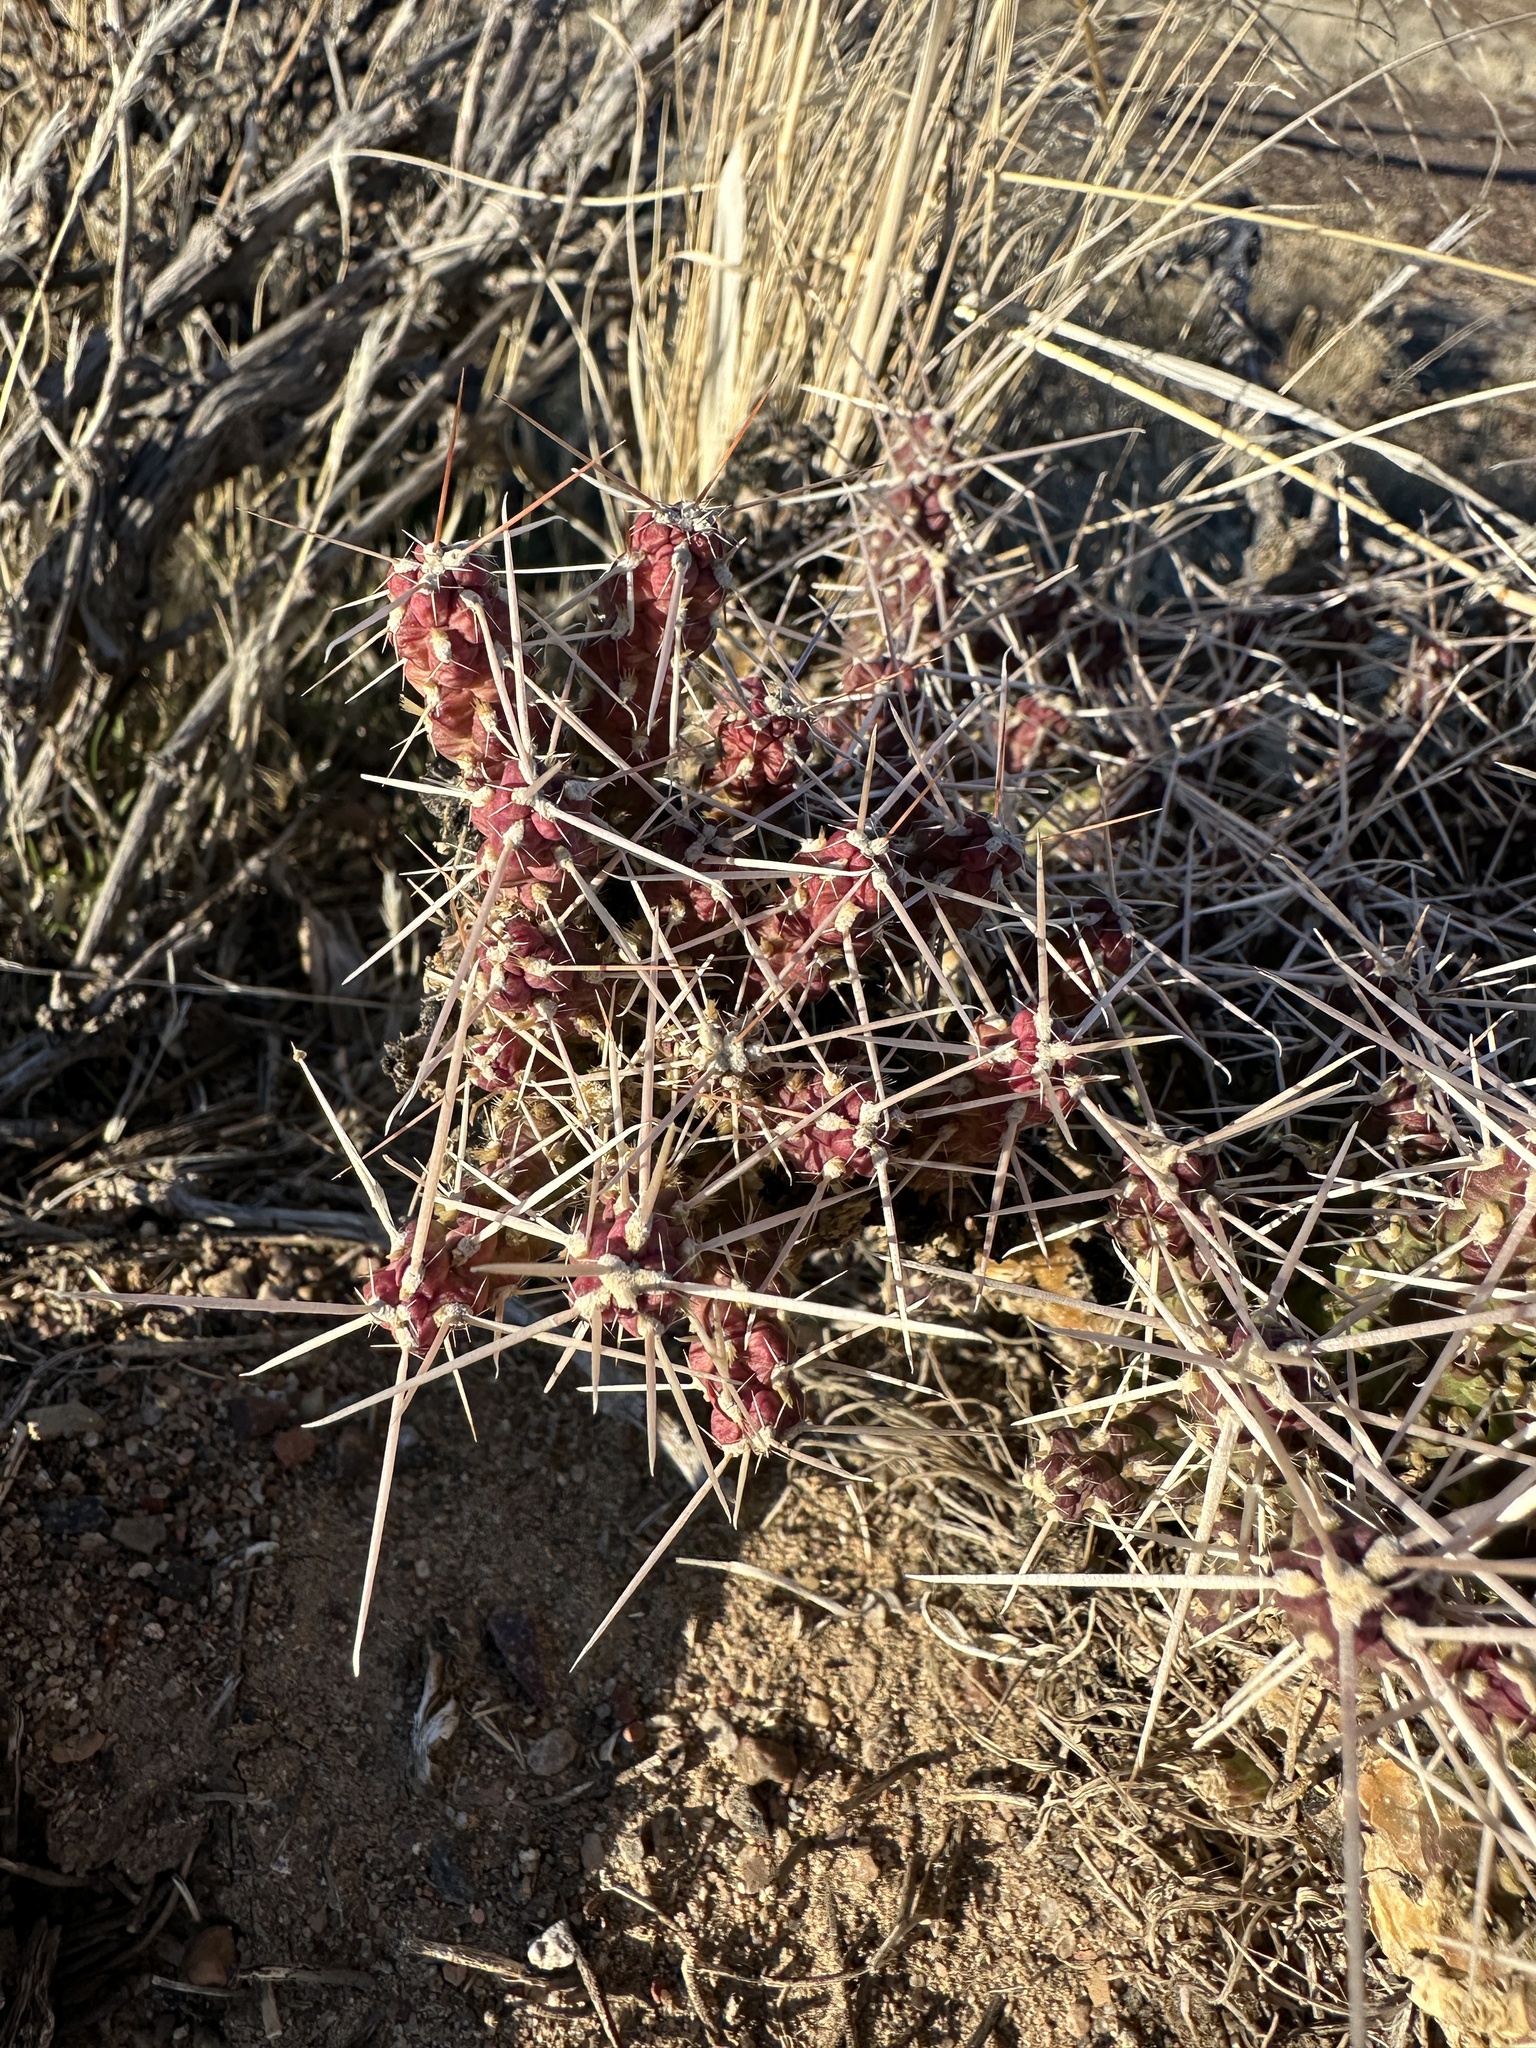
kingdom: Plantae
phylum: Tracheophyta
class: Magnoliopsida
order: Caryophyllales
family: Cactaceae
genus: Cylindropuntia
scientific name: Cylindropuntia whipplei
